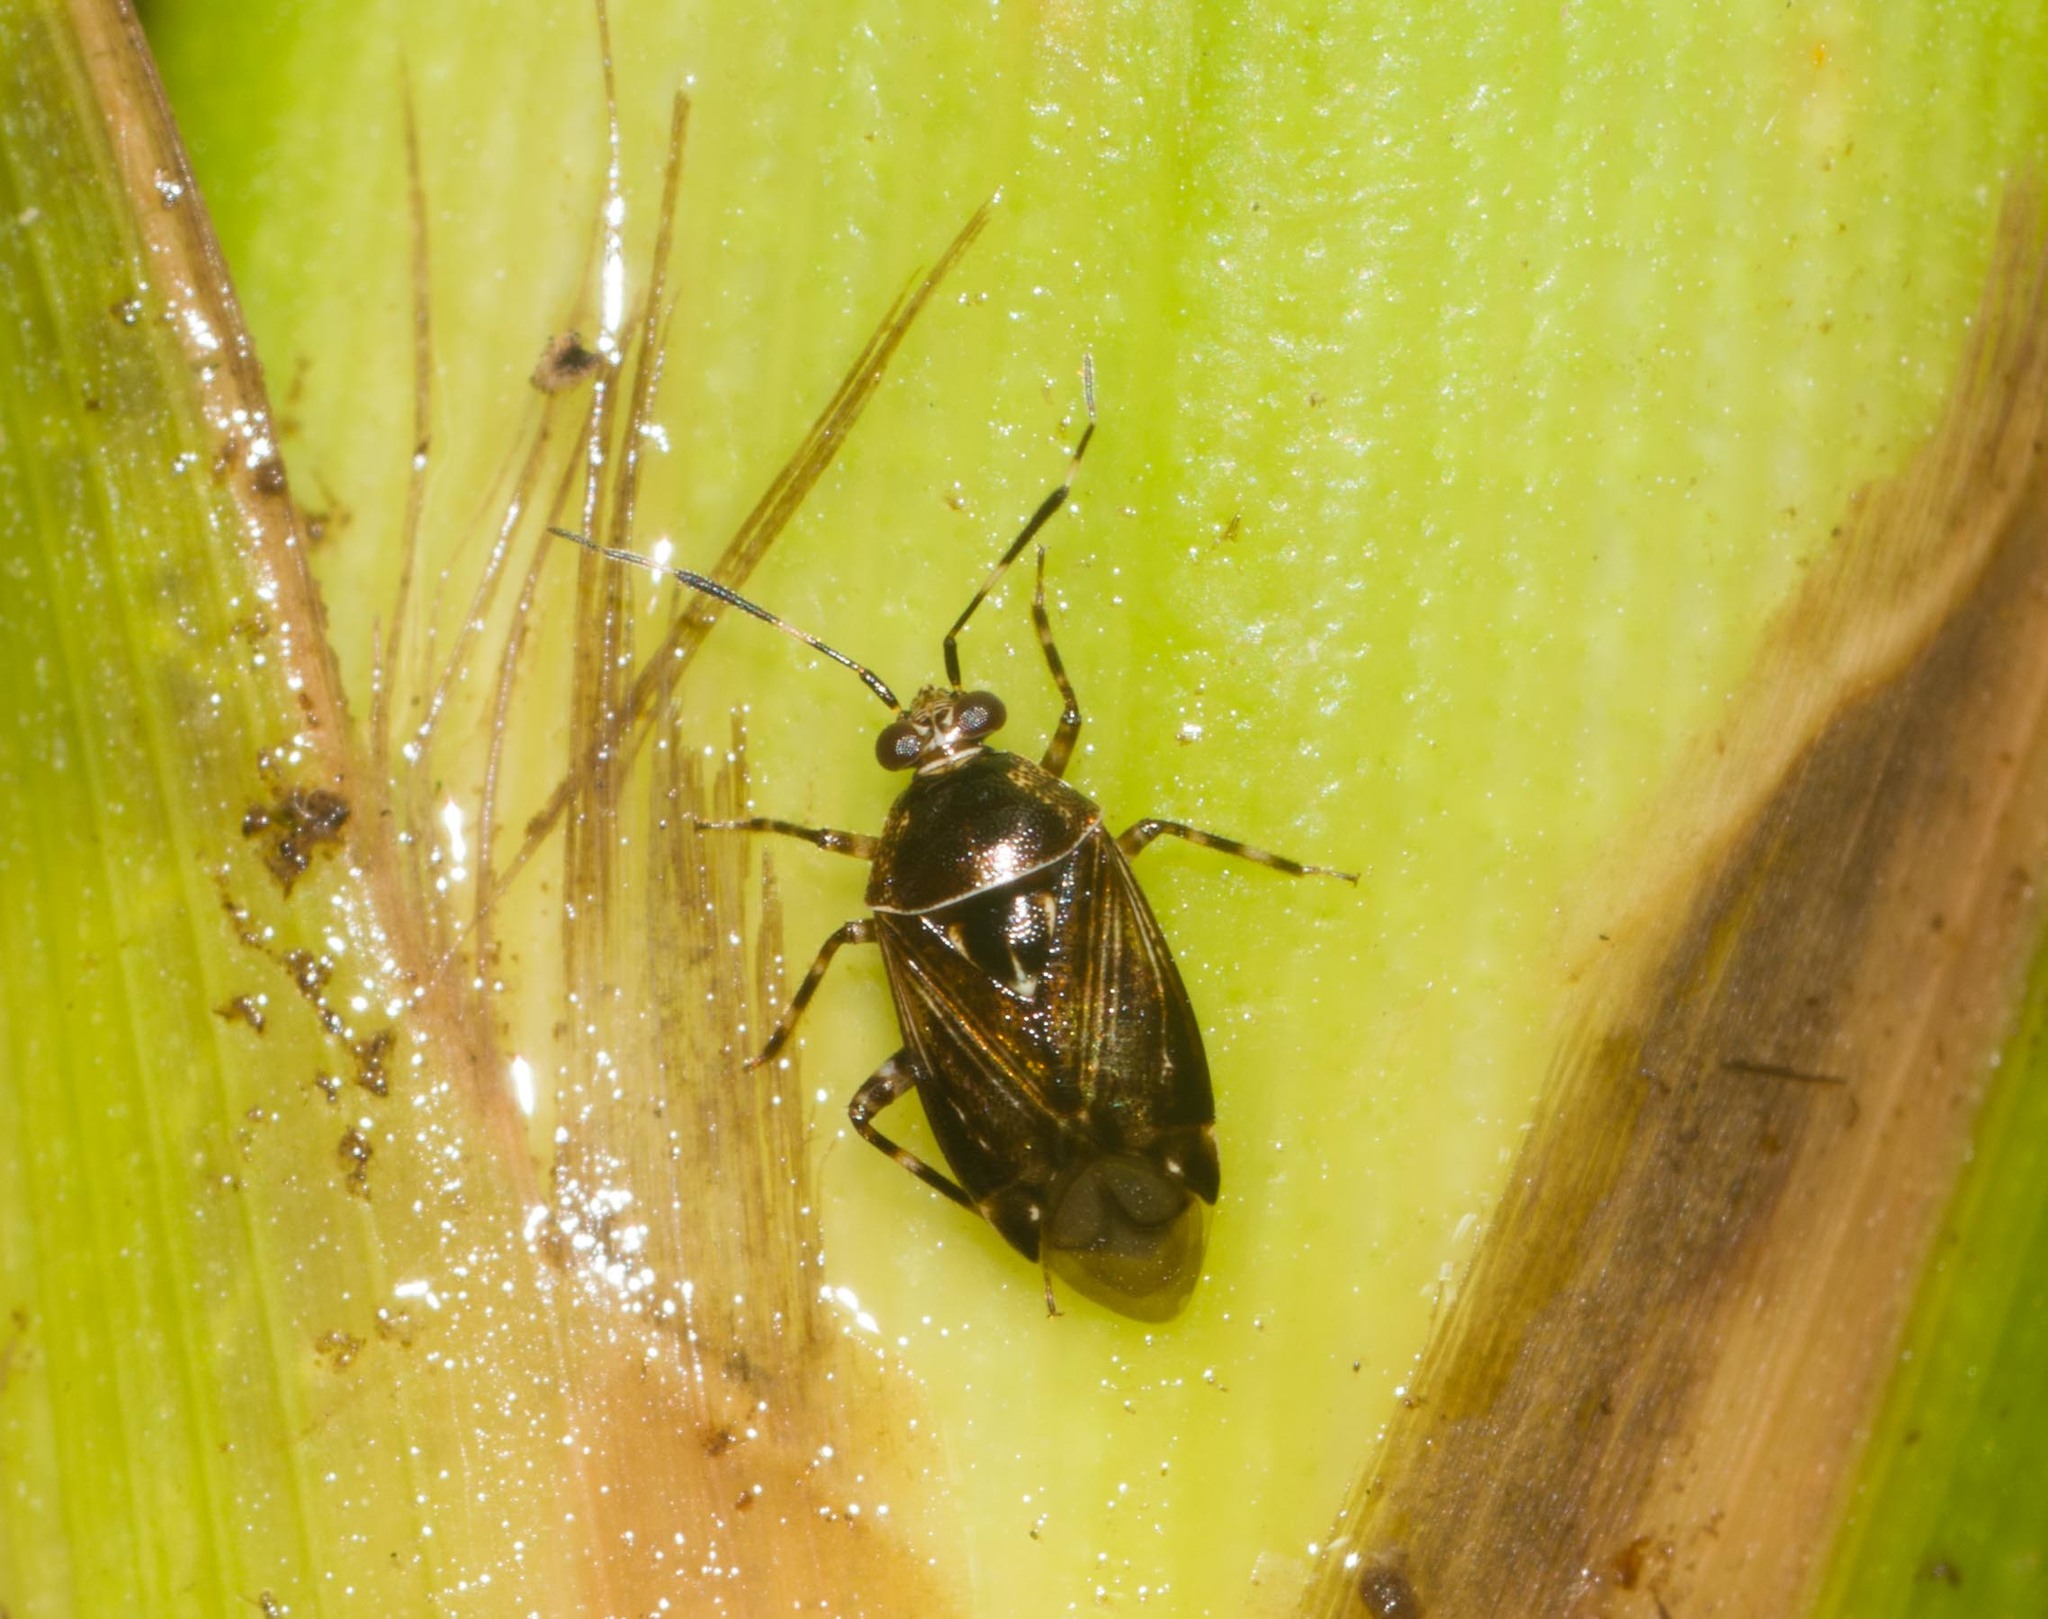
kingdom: Animalia
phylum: Arthropoda
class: Insecta
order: Hemiptera
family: Miridae
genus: Deraeocoris
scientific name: Deraeocoris orientalis
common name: Predatory plant bug
